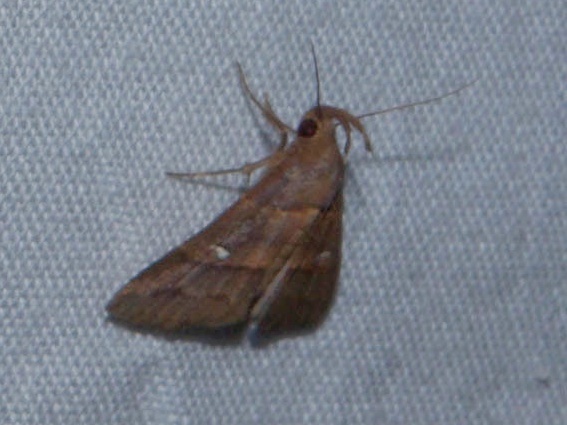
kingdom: Animalia
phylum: Arthropoda
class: Insecta
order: Lepidoptera
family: Erebidae
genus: Bertula
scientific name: Bertula tespisalis
